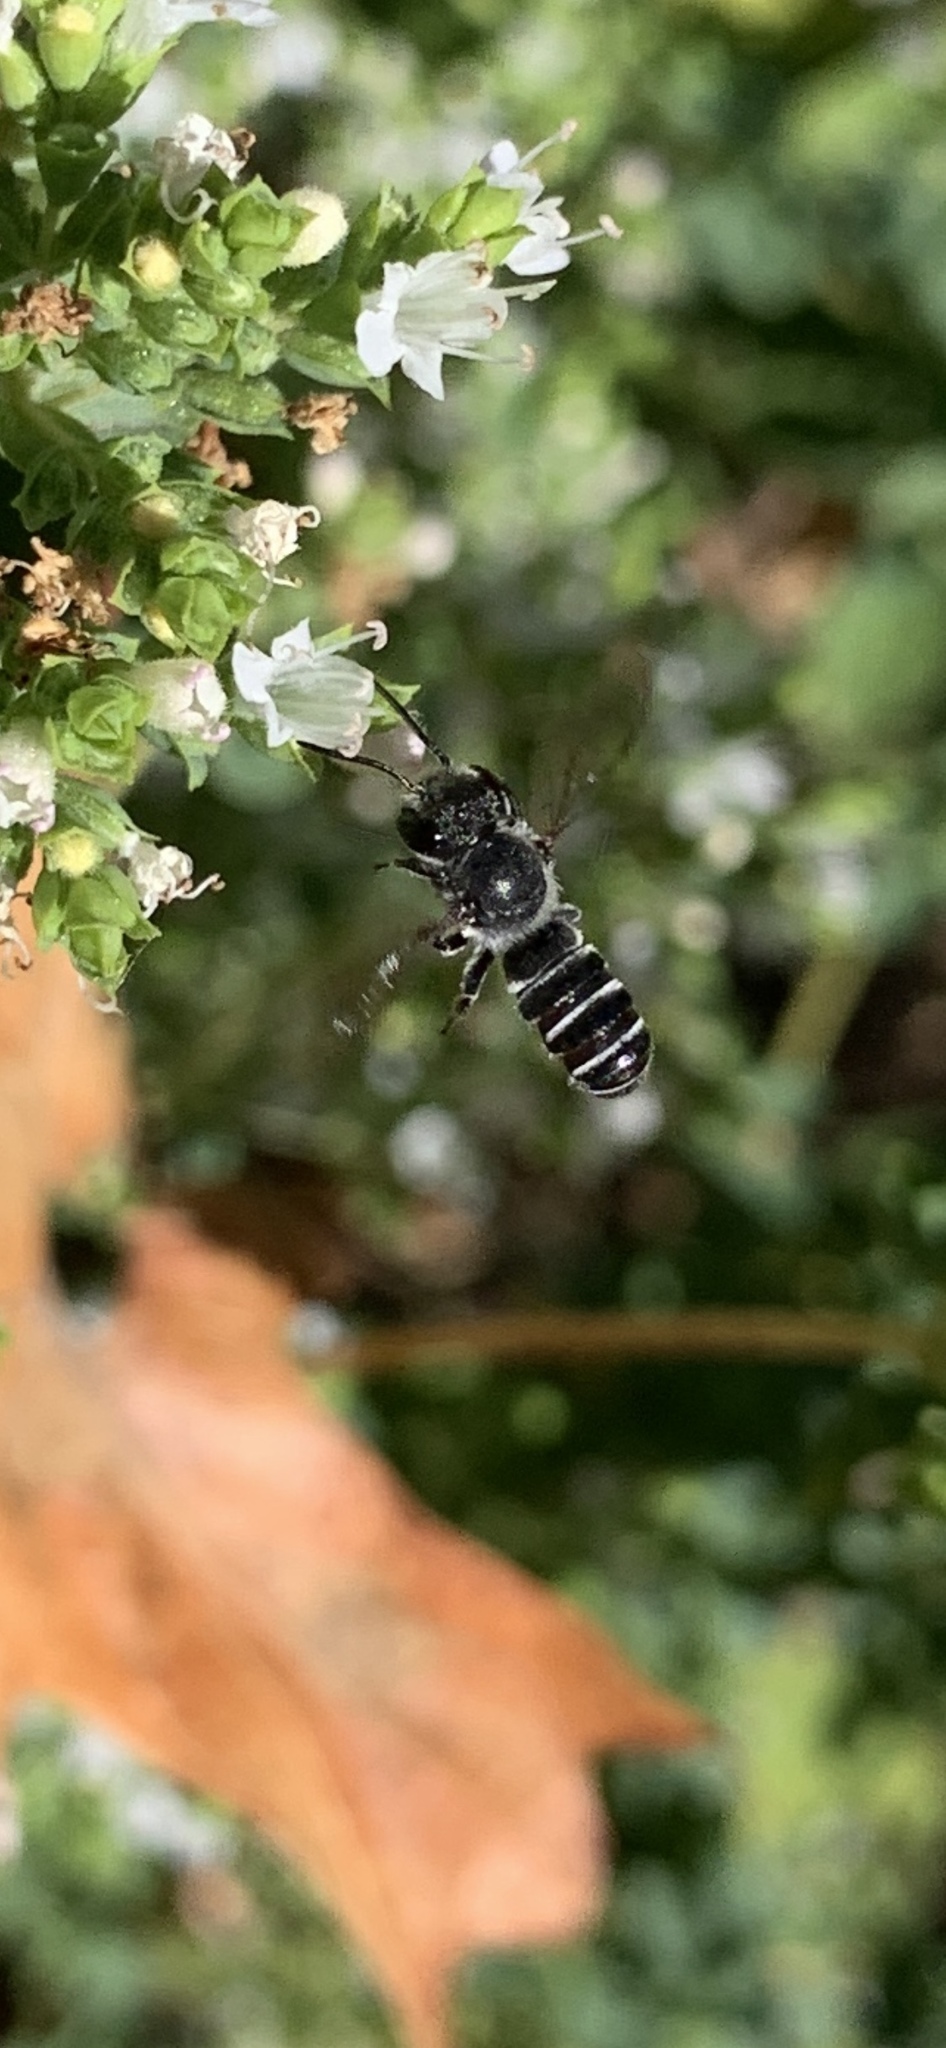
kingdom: Animalia
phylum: Arthropoda
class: Insecta
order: Hymenoptera
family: Megachilidae
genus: Megachile
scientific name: Megachile angelarum
